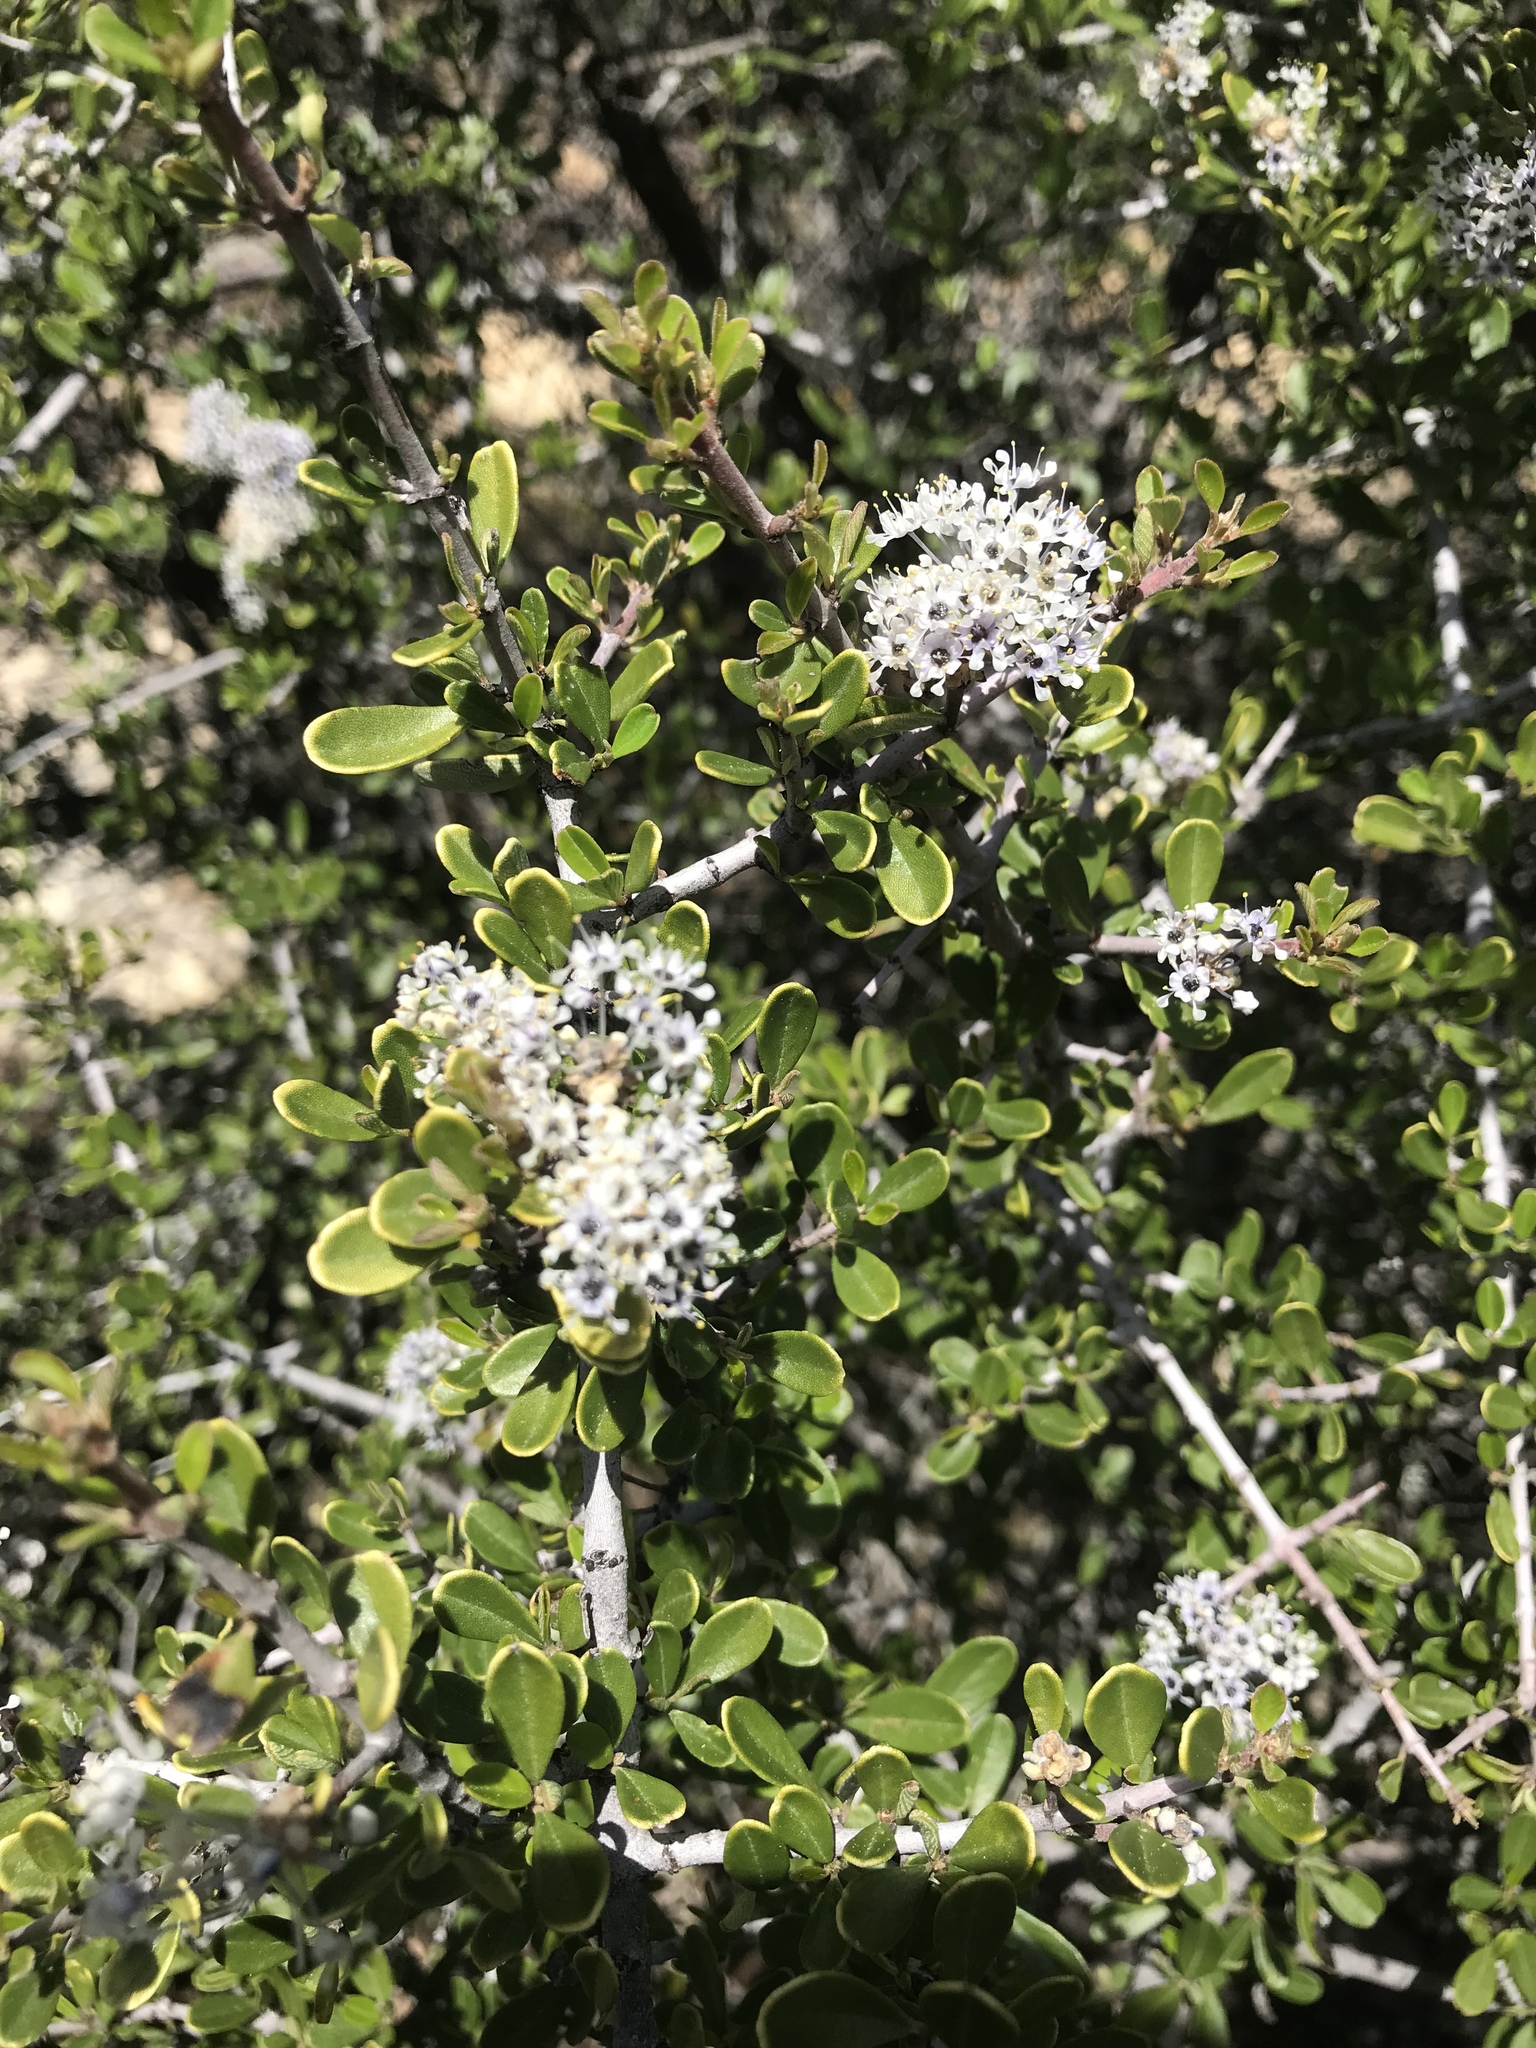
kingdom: Plantae
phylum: Tracheophyta
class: Magnoliopsida
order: Rosales
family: Rhamnaceae
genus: Ceanothus
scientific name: Ceanothus cuneatus
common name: Cuneate ceanothus
